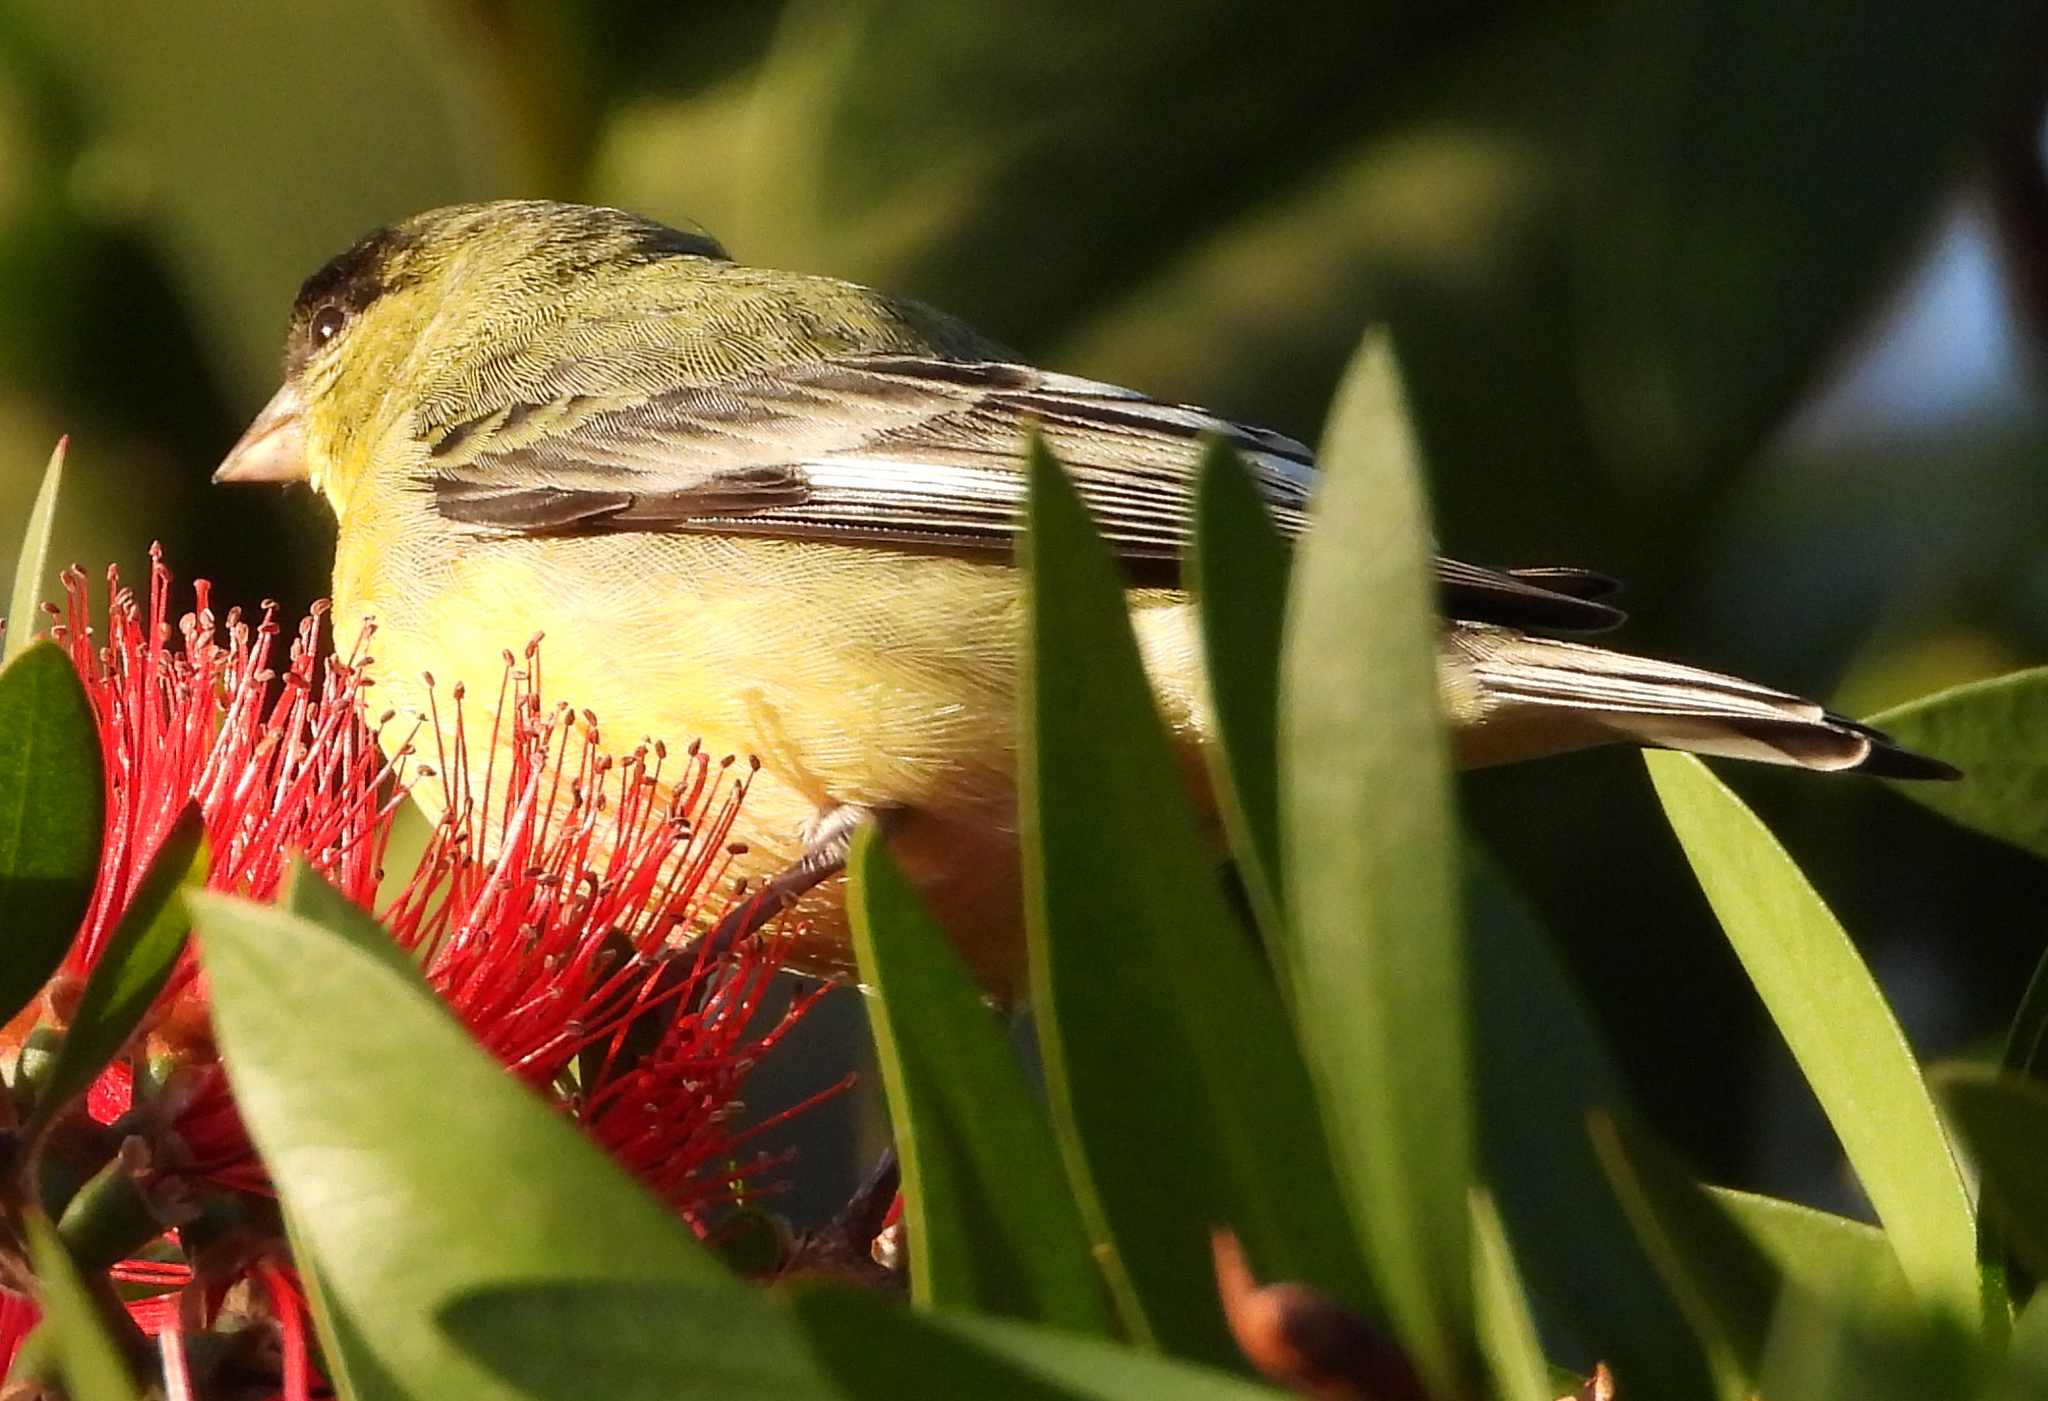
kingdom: Animalia
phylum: Chordata
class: Aves
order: Passeriformes
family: Fringillidae
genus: Spinus
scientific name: Spinus psaltria
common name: Lesser goldfinch
